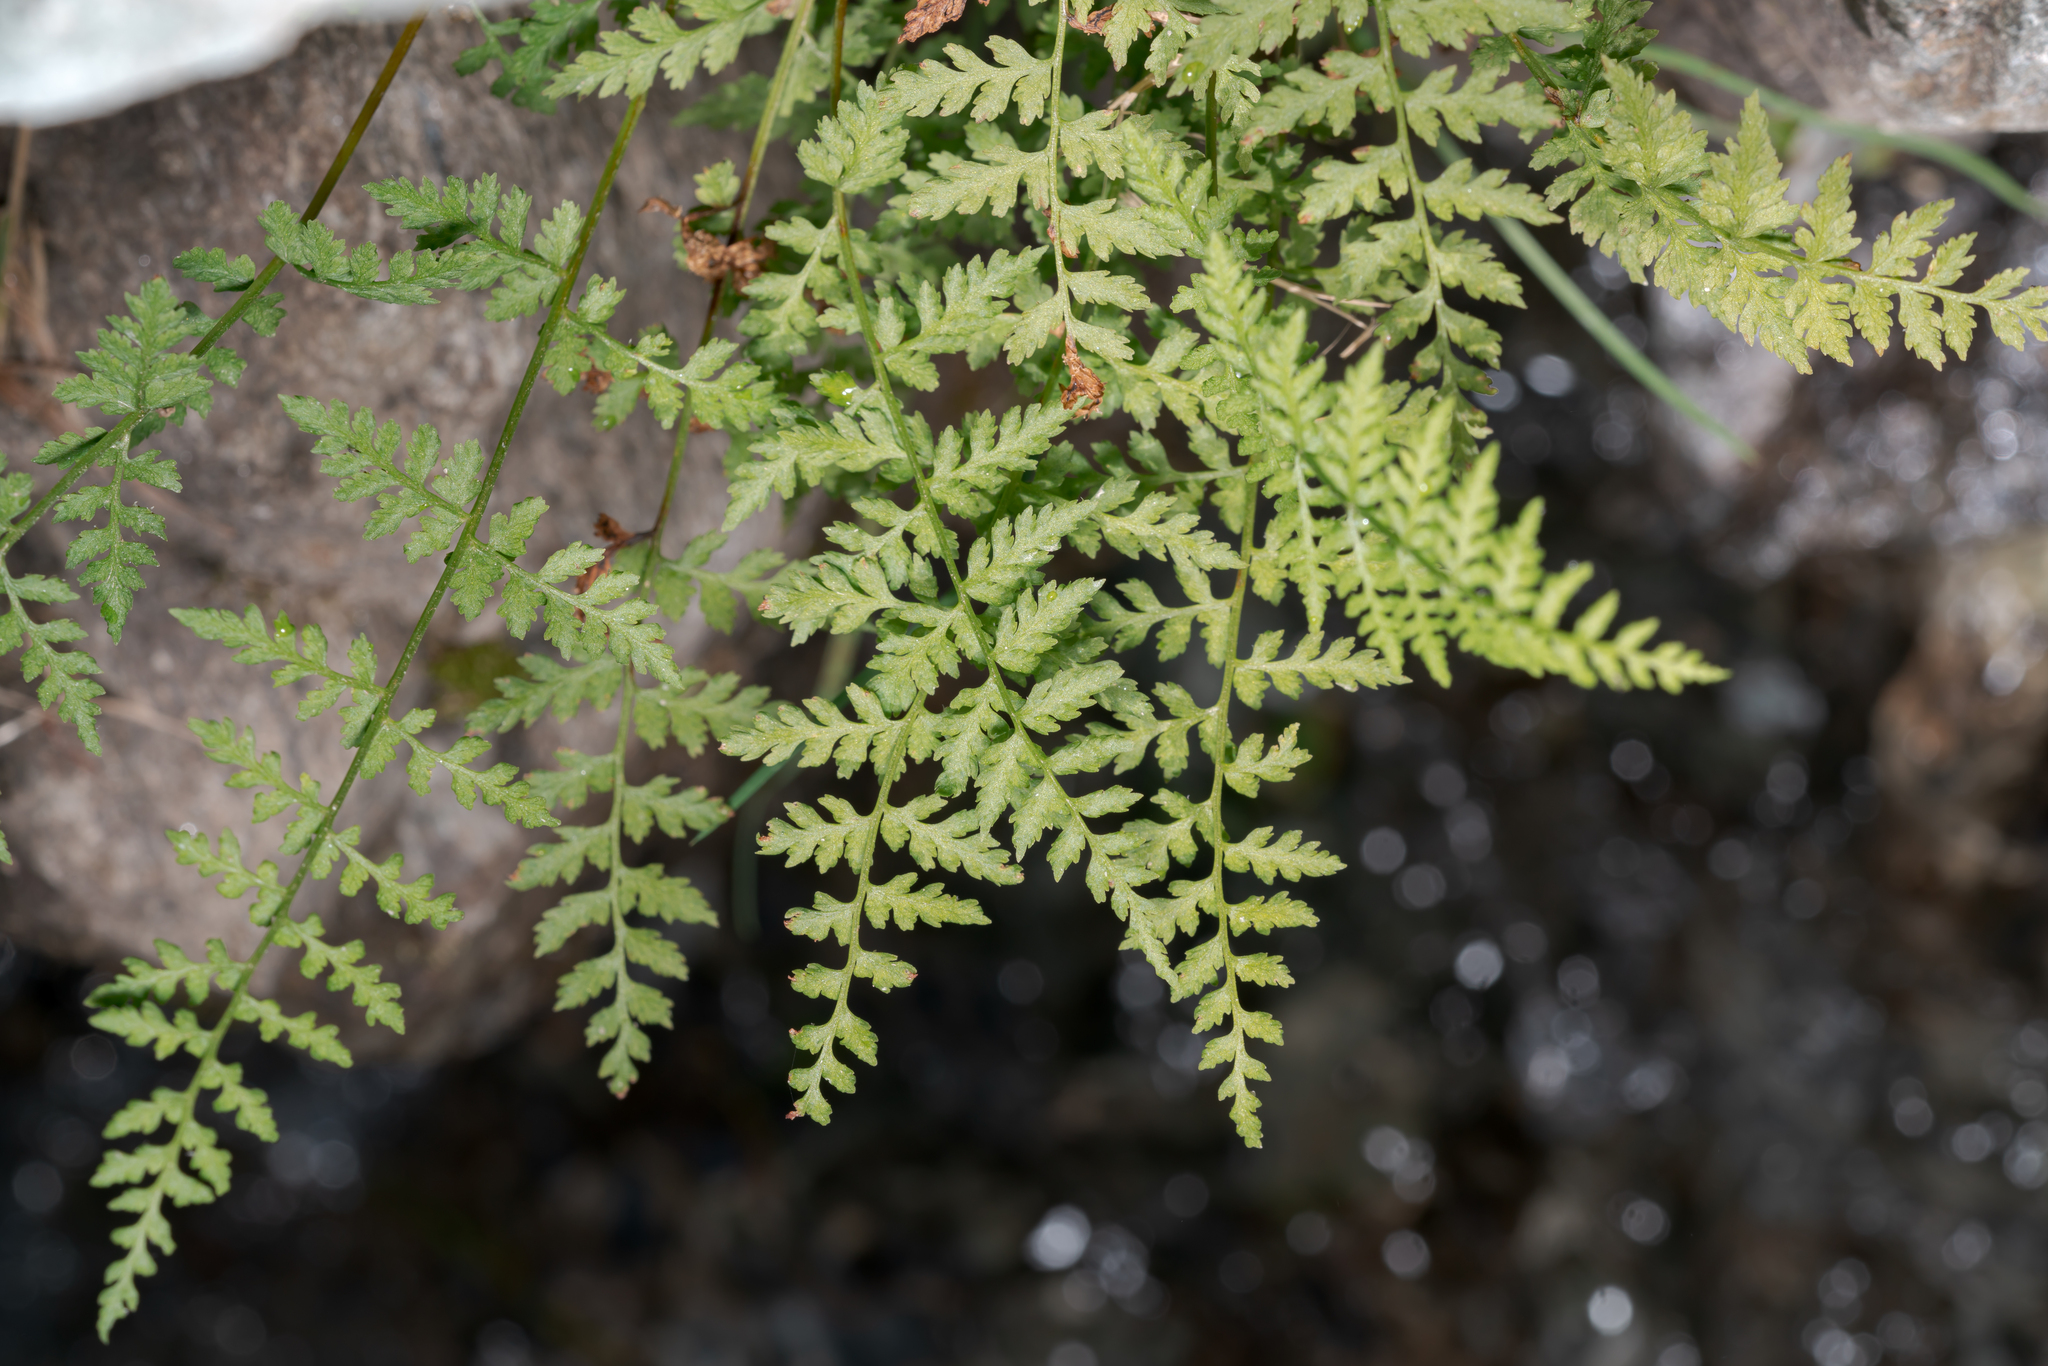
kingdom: Plantae
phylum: Tracheophyta
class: Polypodiopsida
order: Polypodiales
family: Cystopteridaceae
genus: Cystopteris
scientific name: Cystopteris fragilis
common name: Brittle bladder fern
